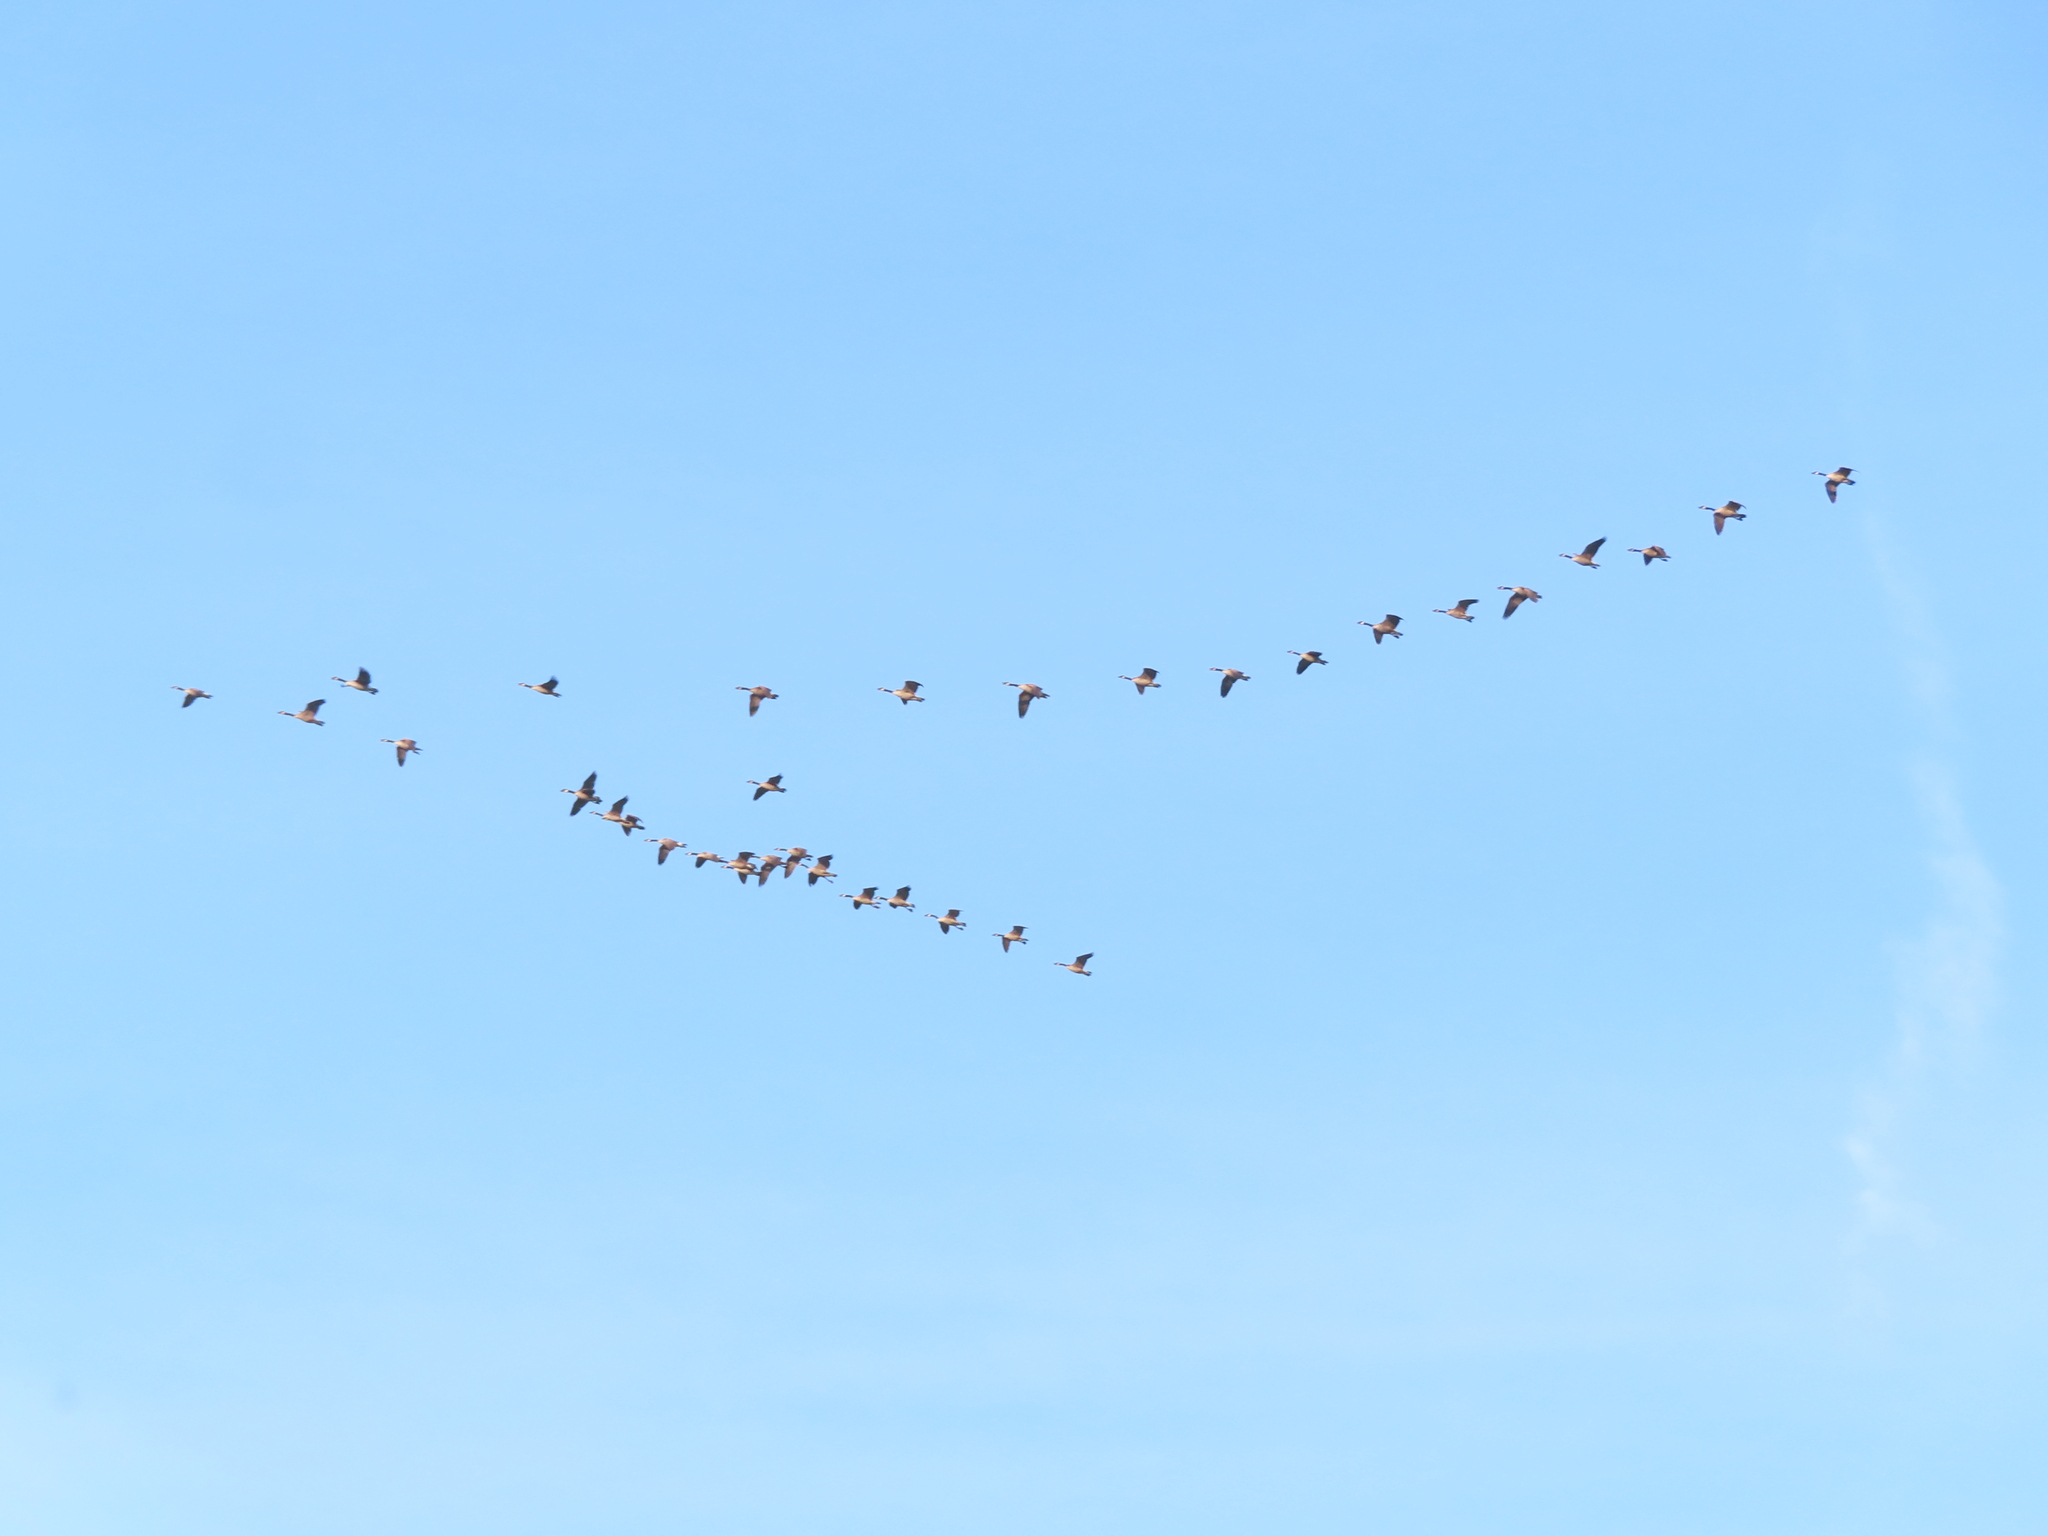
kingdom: Animalia
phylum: Chordata
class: Aves
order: Anseriformes
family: Anatidae
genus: Branta
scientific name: Branta canadensis
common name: Canada goose
